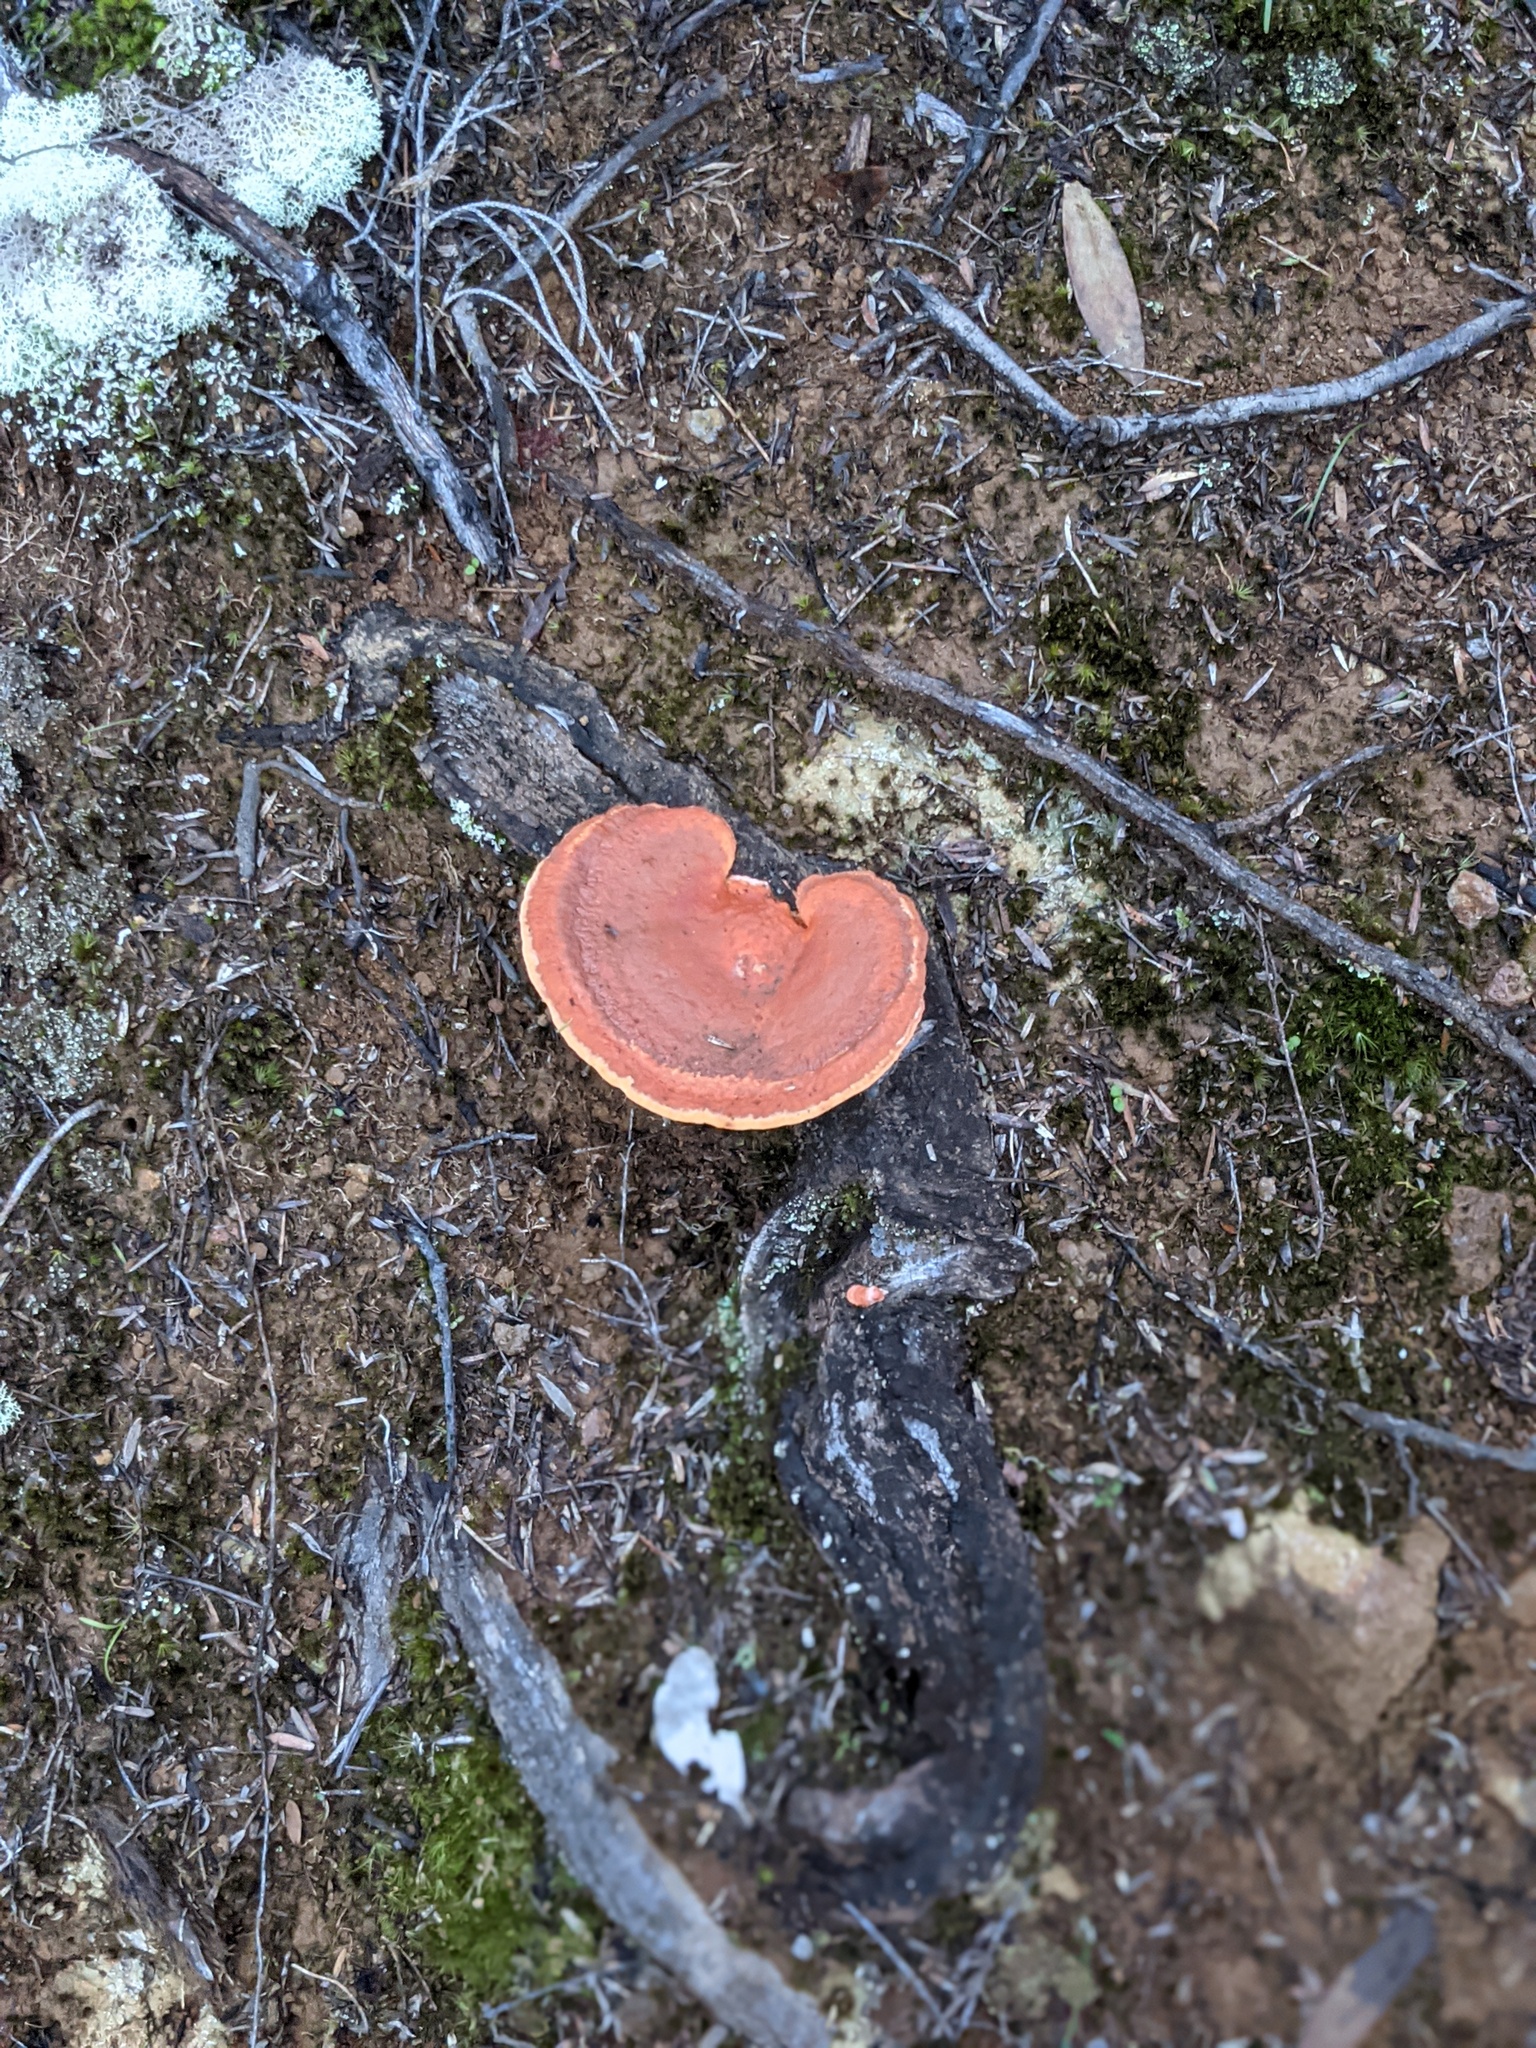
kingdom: Fungi
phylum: Basidiomycota
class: Agaricomycetes
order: Polyporales
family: Polyporaceae
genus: Trametes
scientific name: Trametes coccinea
